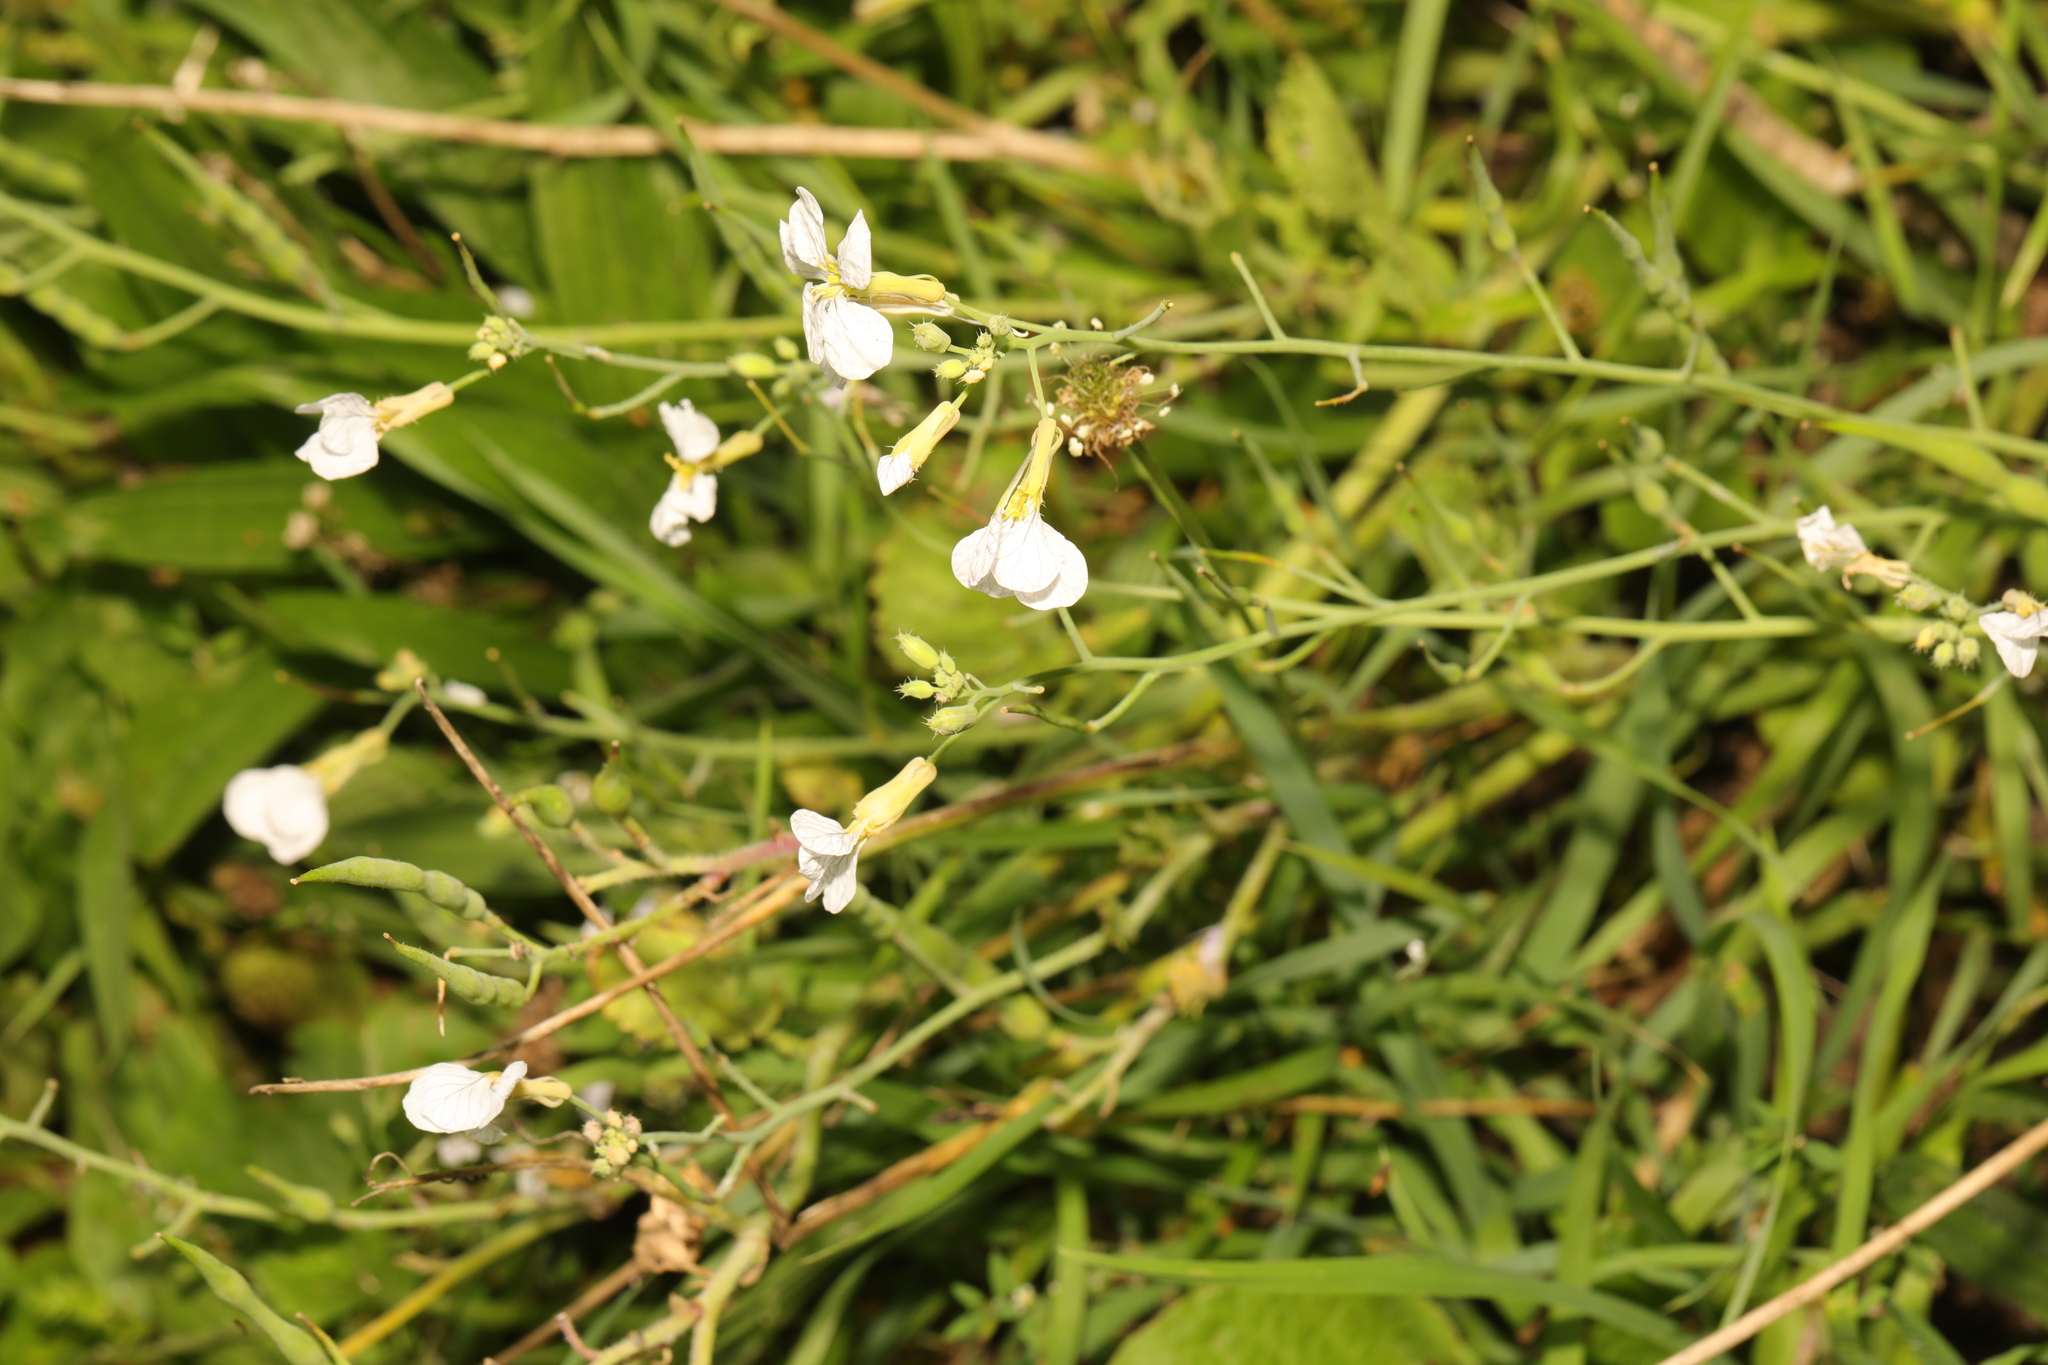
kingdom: Plantae
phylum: Tracheophyta
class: Magnoliopsida
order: Brassicales
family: Brassicaceae
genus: Raphanus
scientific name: Raphanus raphanistrum
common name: Wild radish
